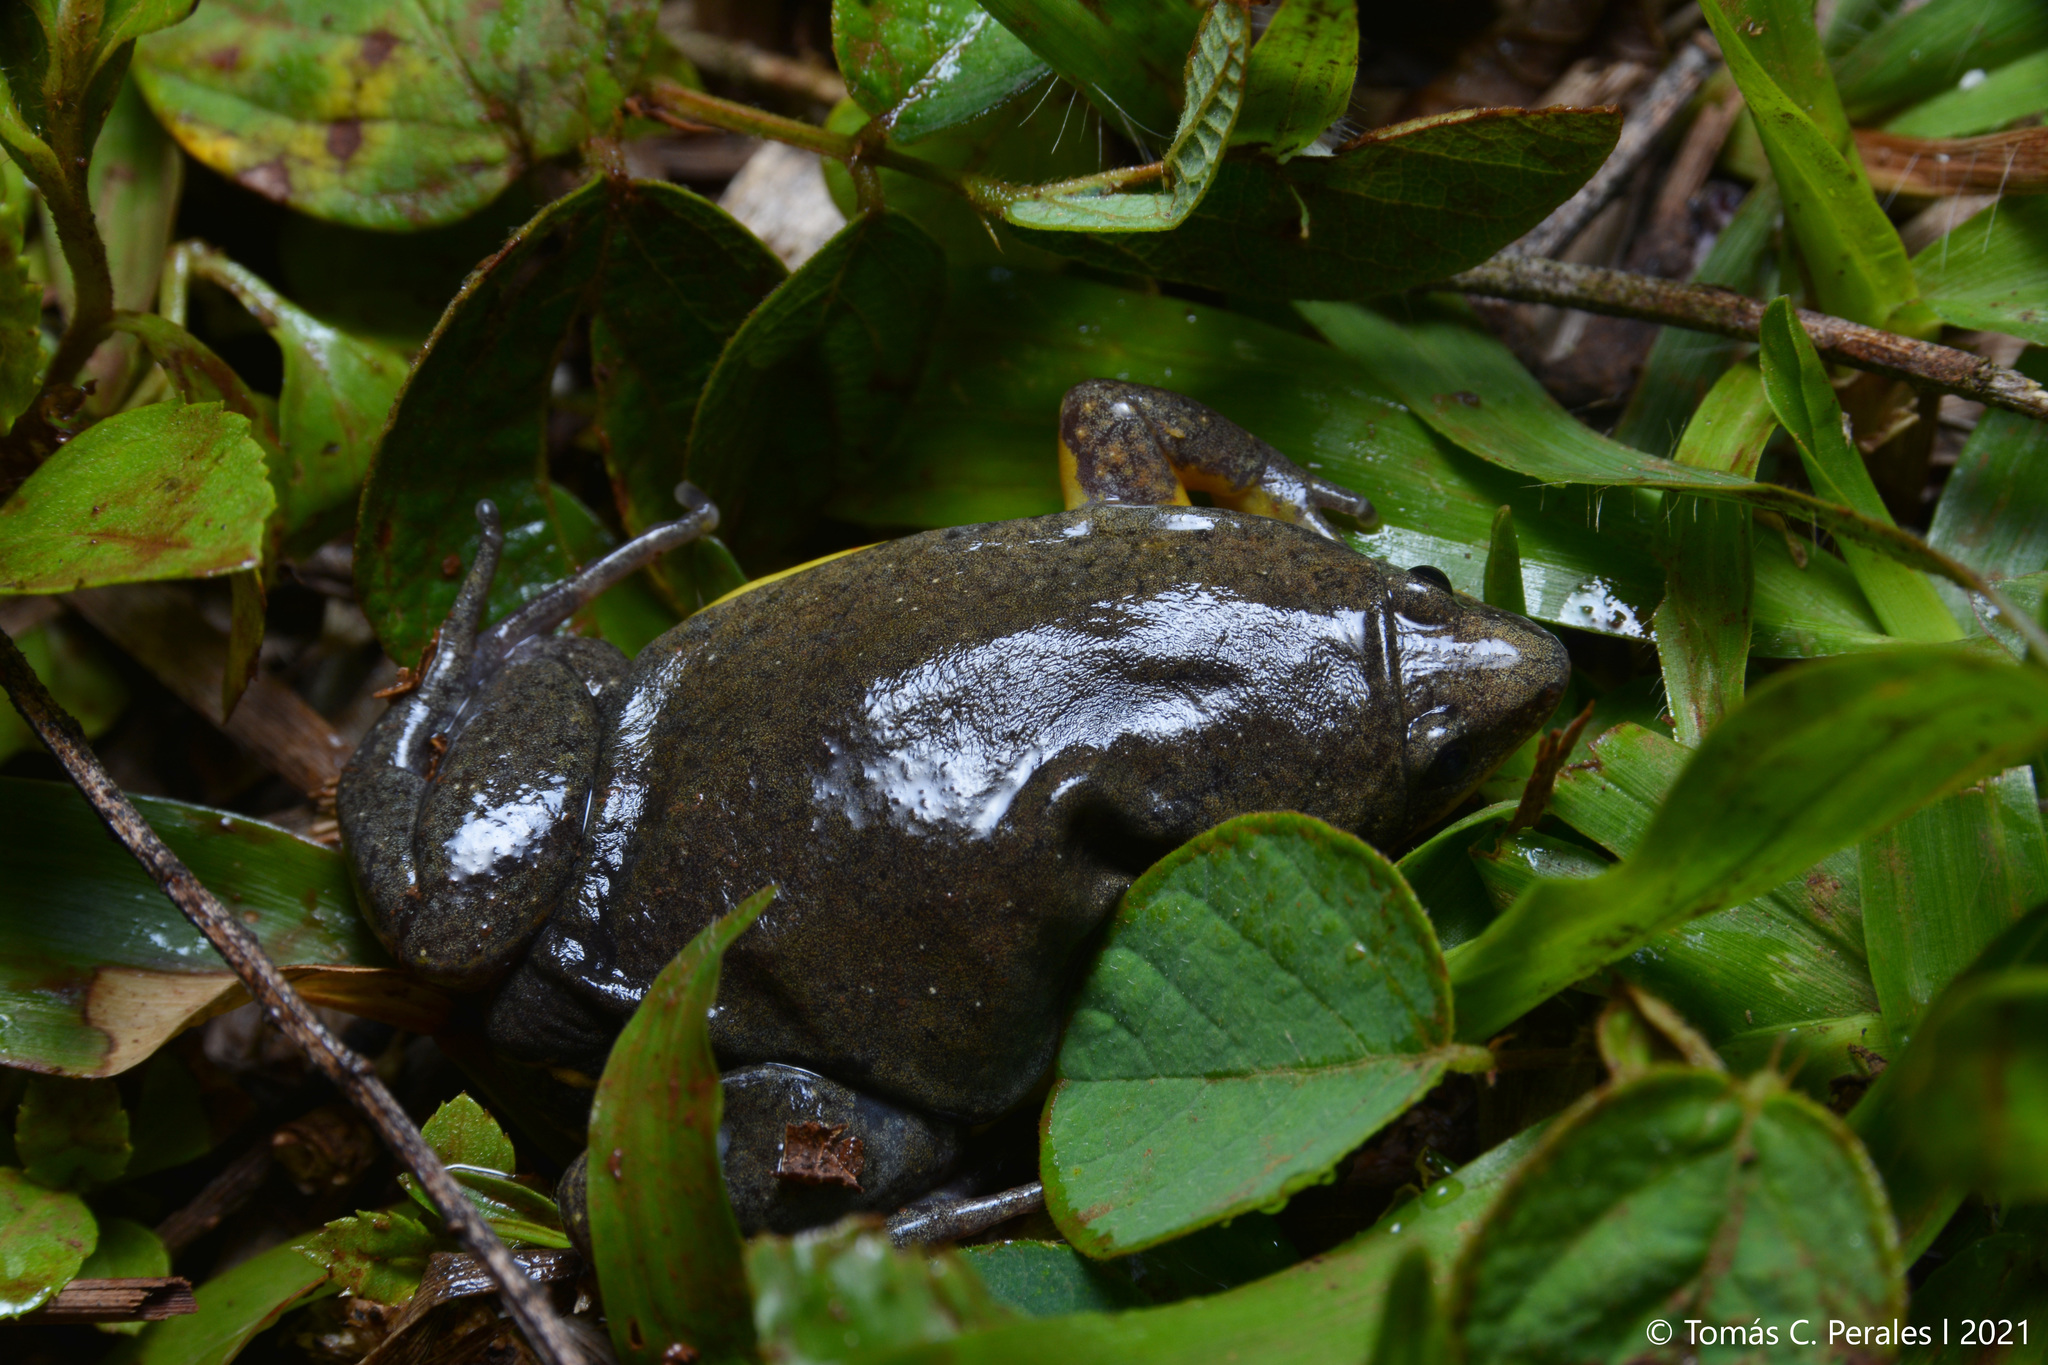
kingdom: Animalia
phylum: Chordata
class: Amphibia
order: Anura
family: Microhylidae
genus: Elachistocleis
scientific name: Elachistocleis bicolor
